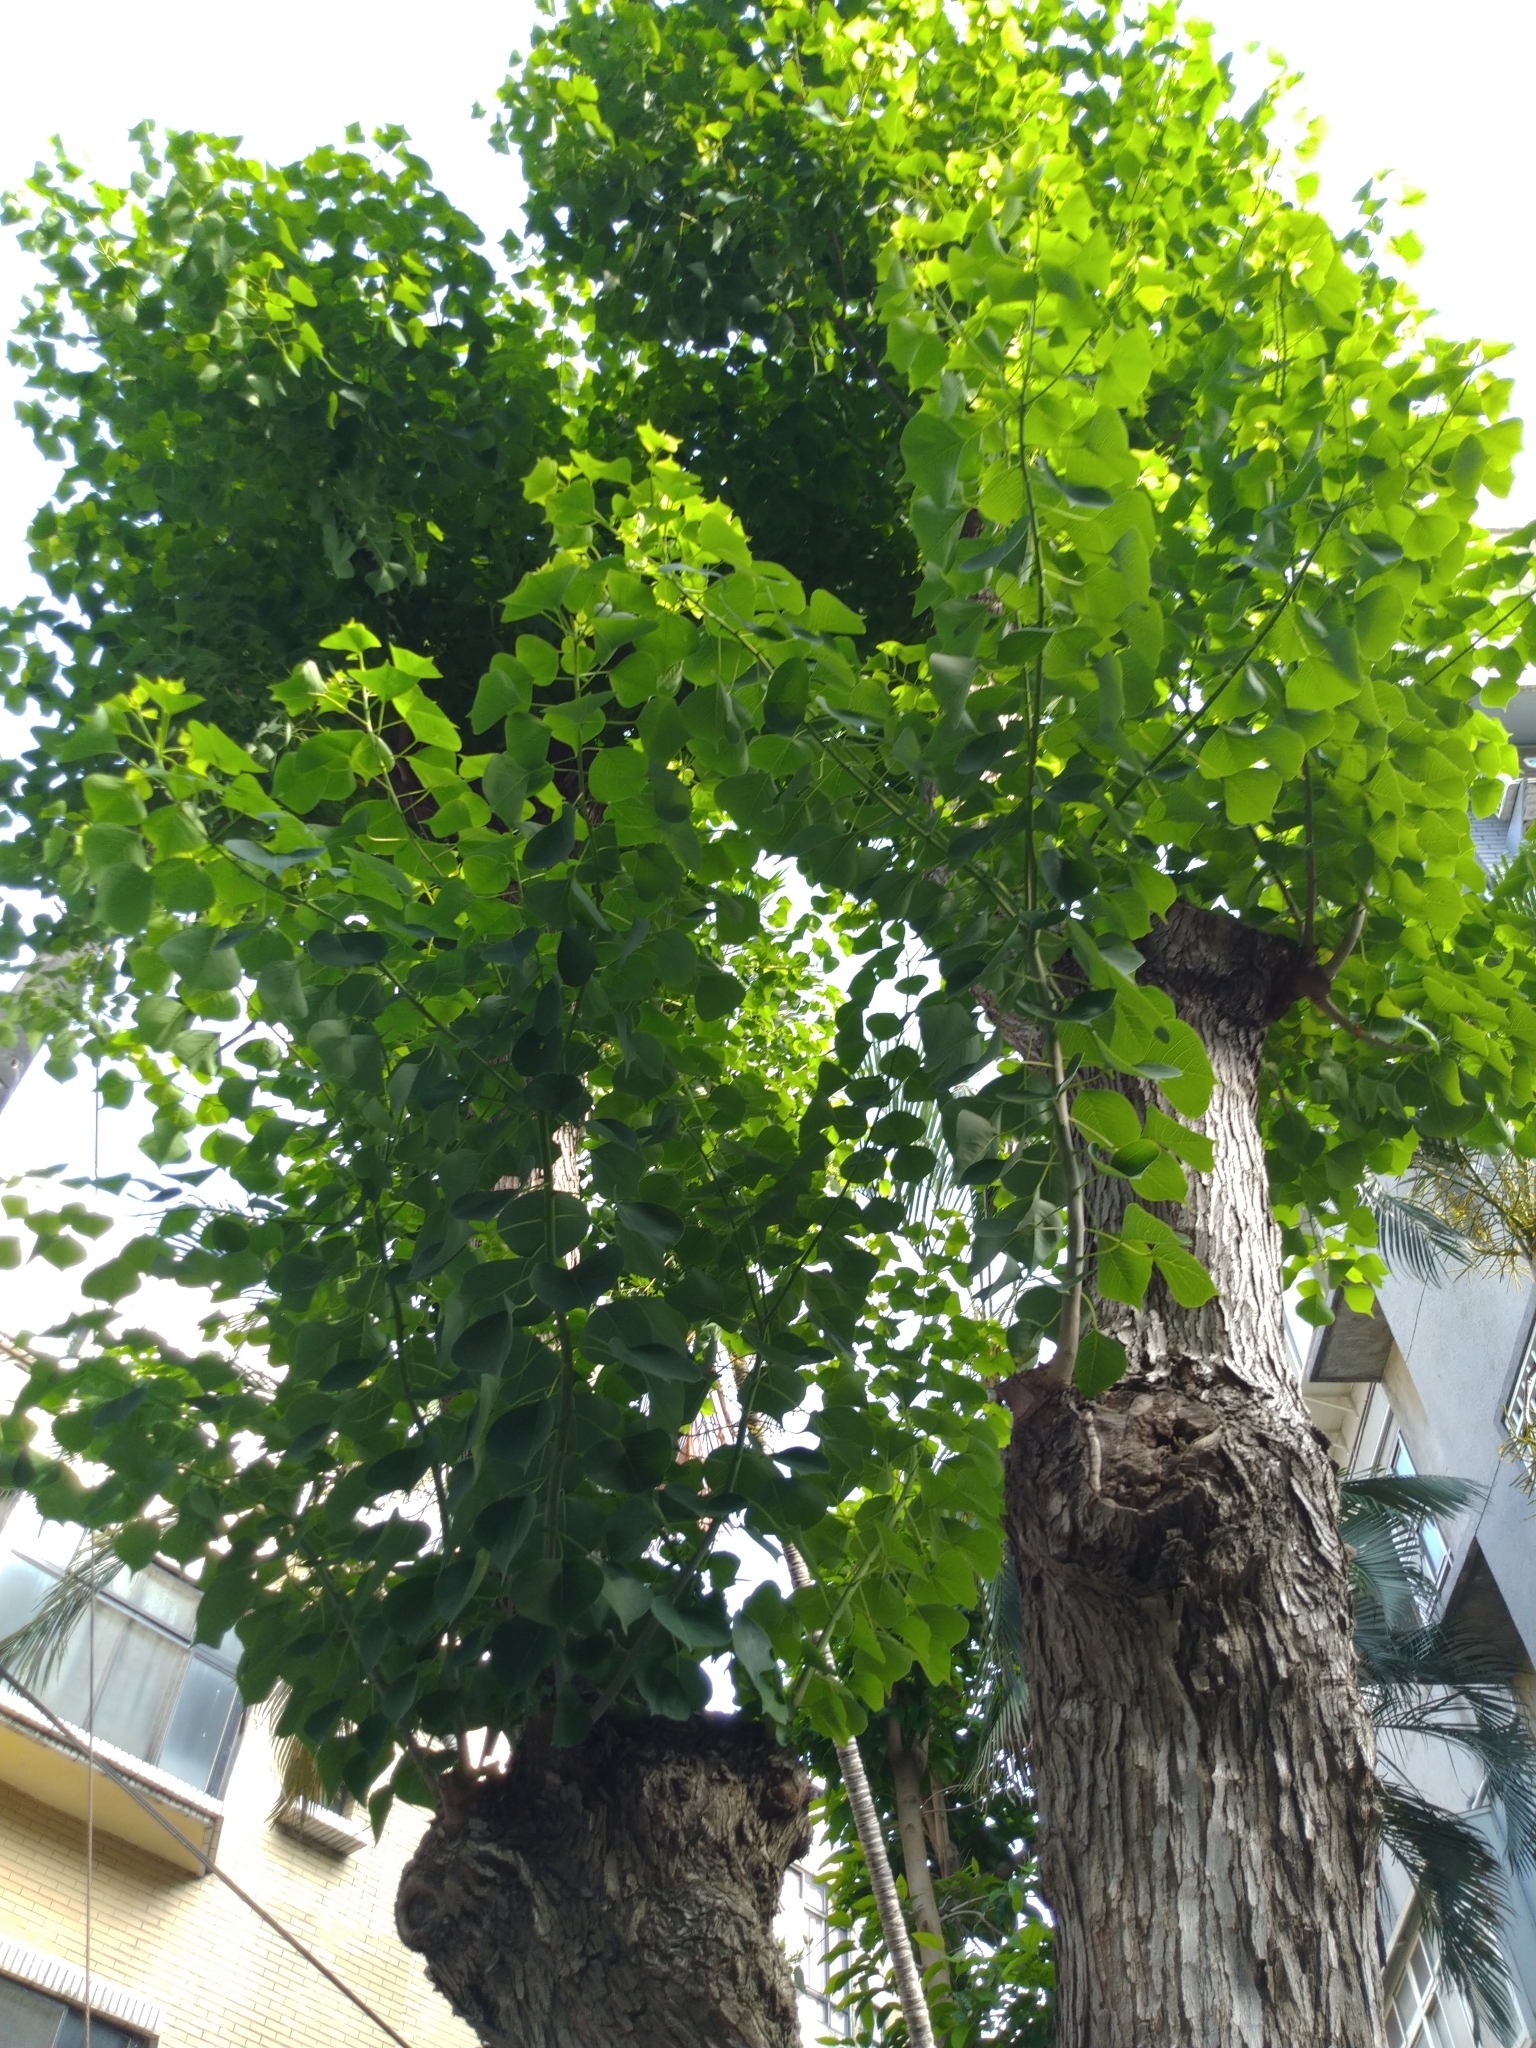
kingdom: Plantae
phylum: Tracheophyta
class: Magnoliopsida
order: Malpighiales
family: Euphorbiaceae
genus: Triadica
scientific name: Triadica sebifera
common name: Chinese tallow
